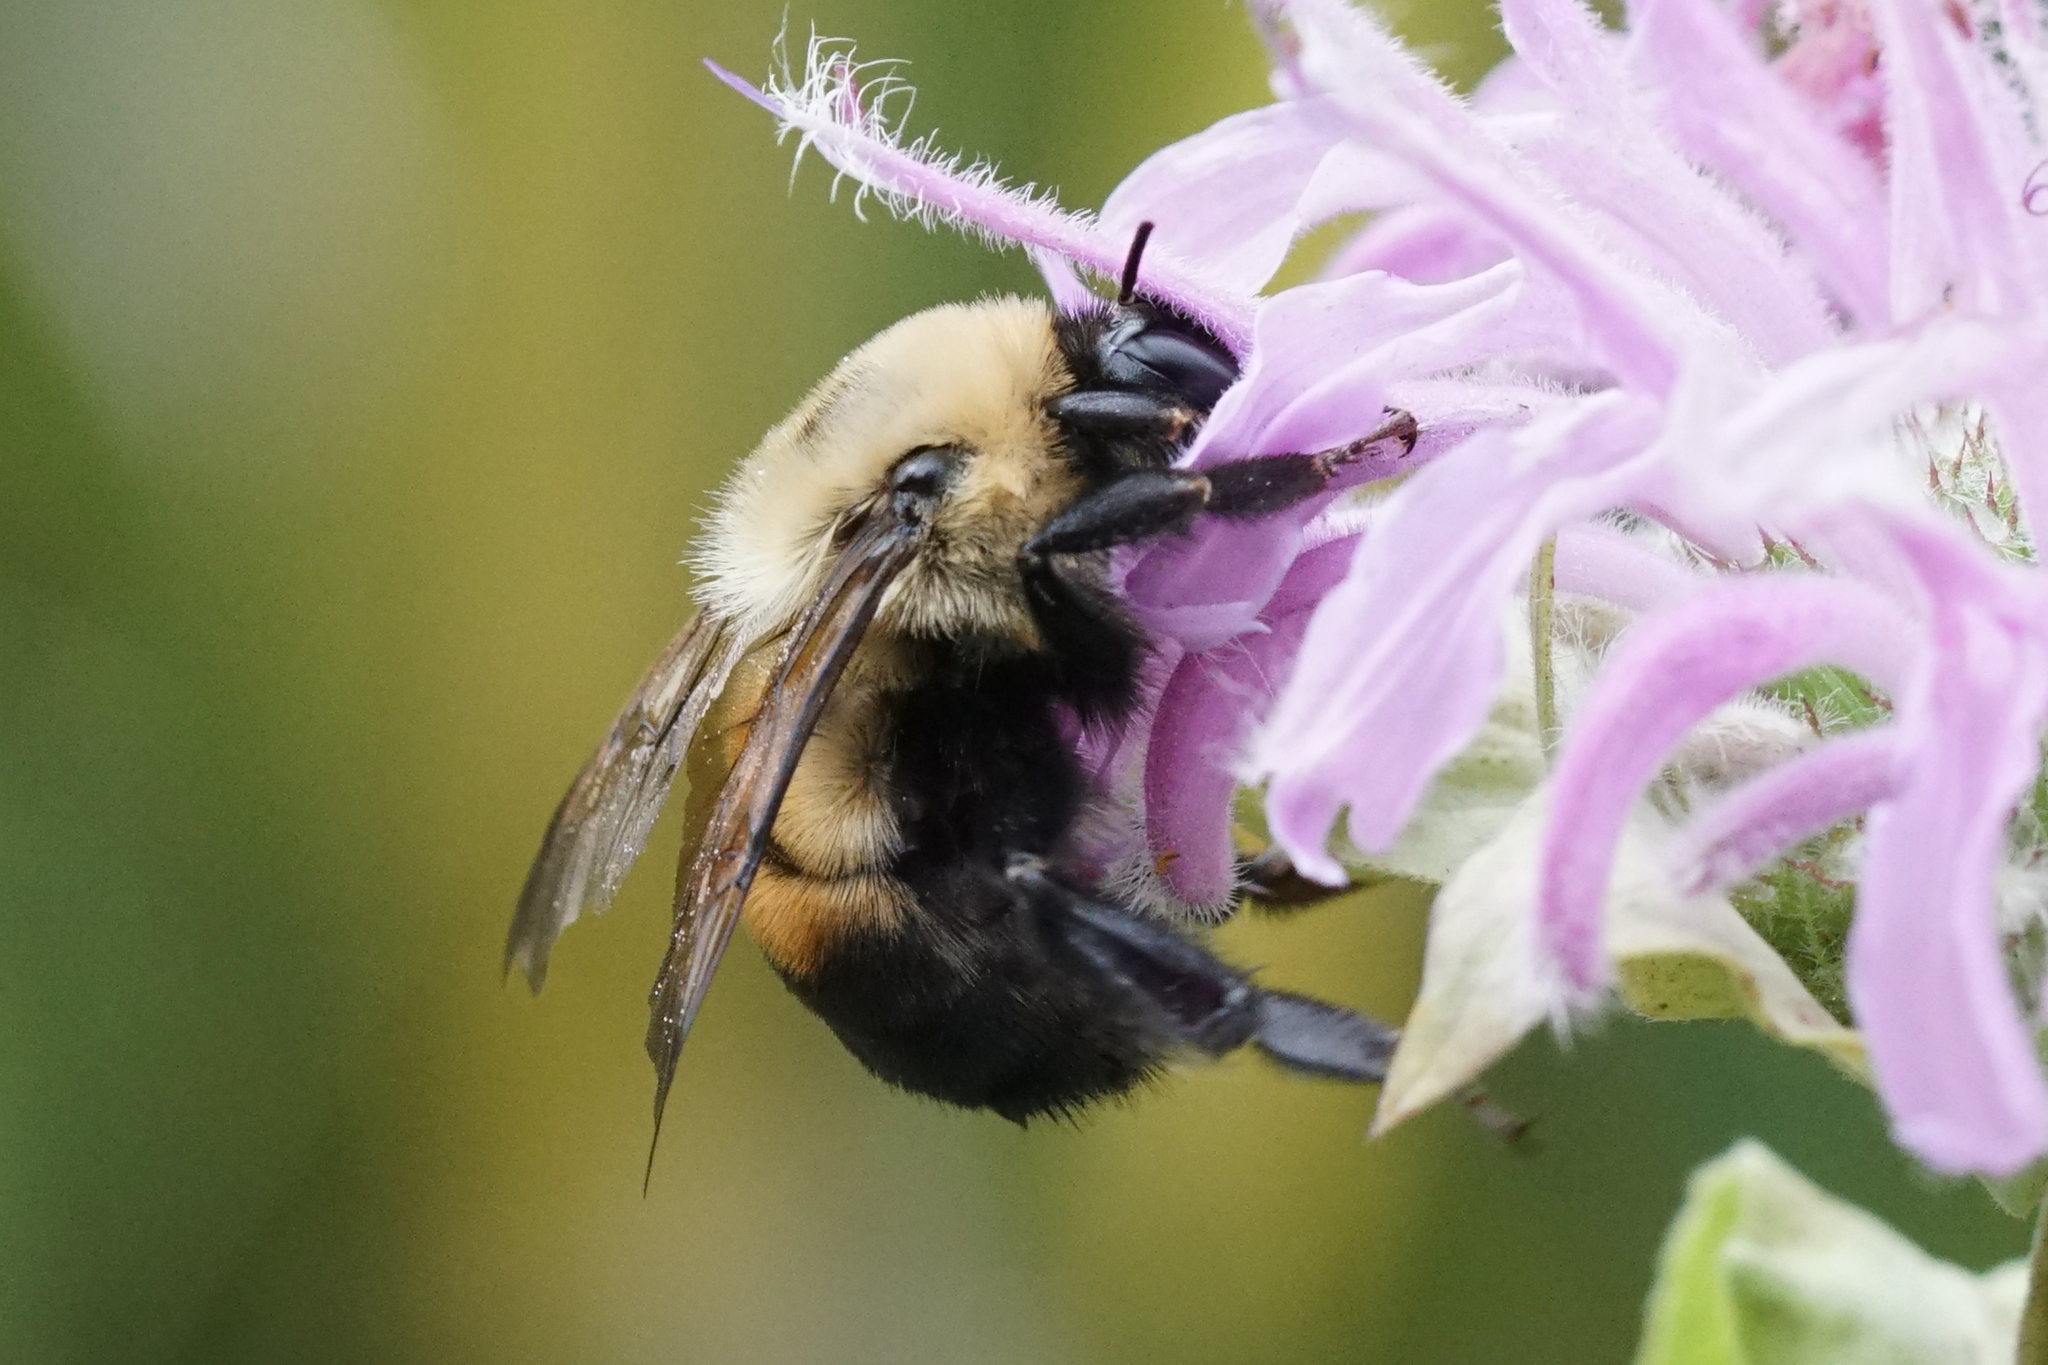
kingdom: Animalia
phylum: Arthropoda
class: Insecta
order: Hymenoptera
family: Apidae
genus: Bombus
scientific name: Bombus griseocollis
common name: Brown-belted bumble bee
